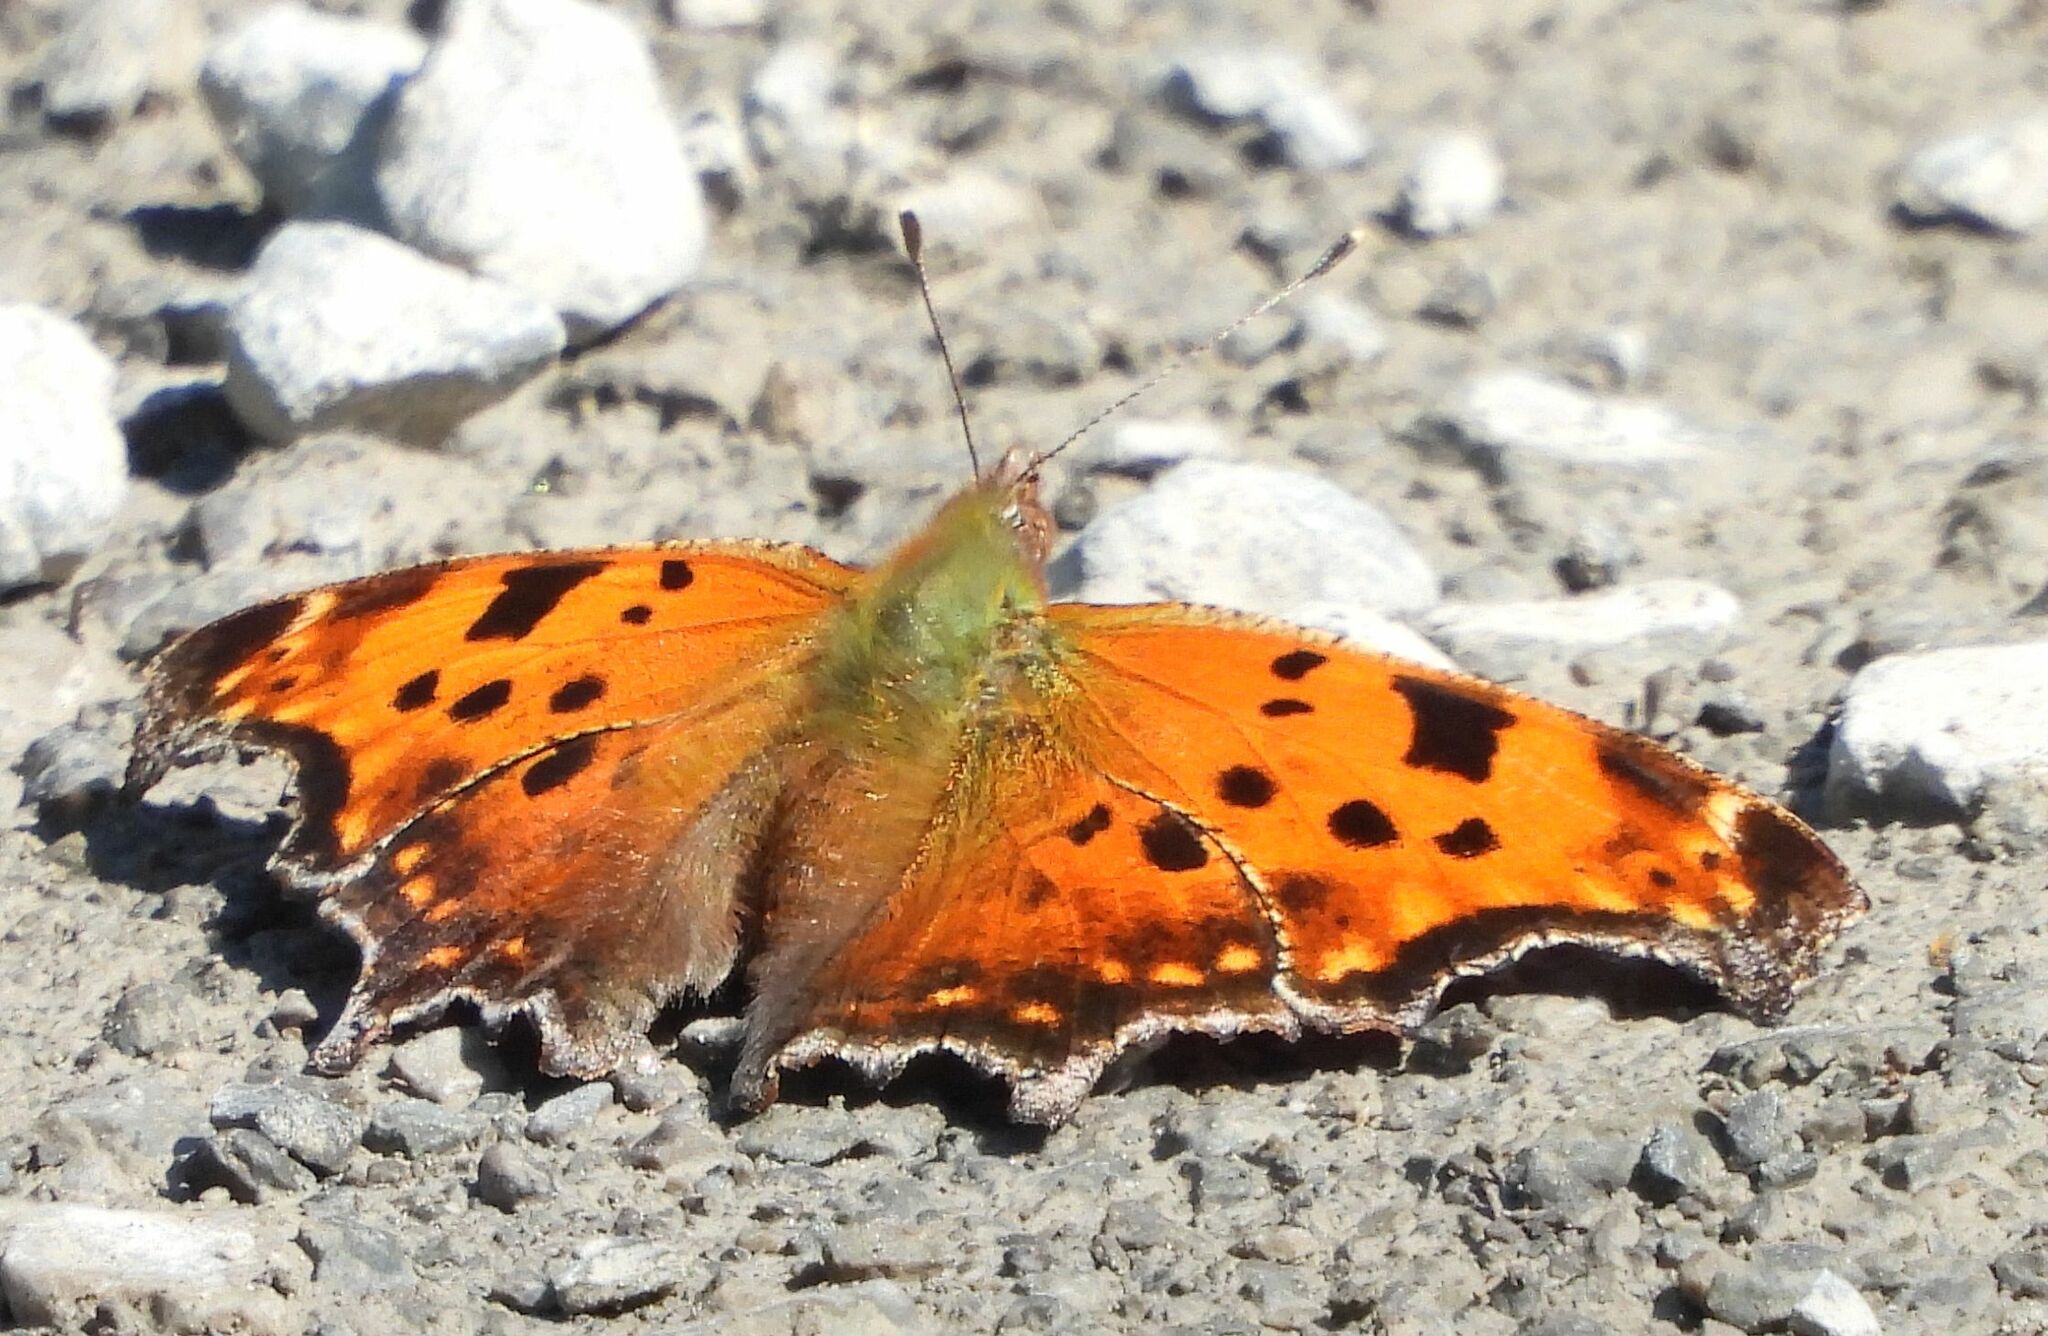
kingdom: Animalia
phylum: Arthropoda
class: Insecta
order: Lepidoptera
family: Nymphalidae
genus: Polygonia
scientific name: Polygonia comma
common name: Eastern comma
